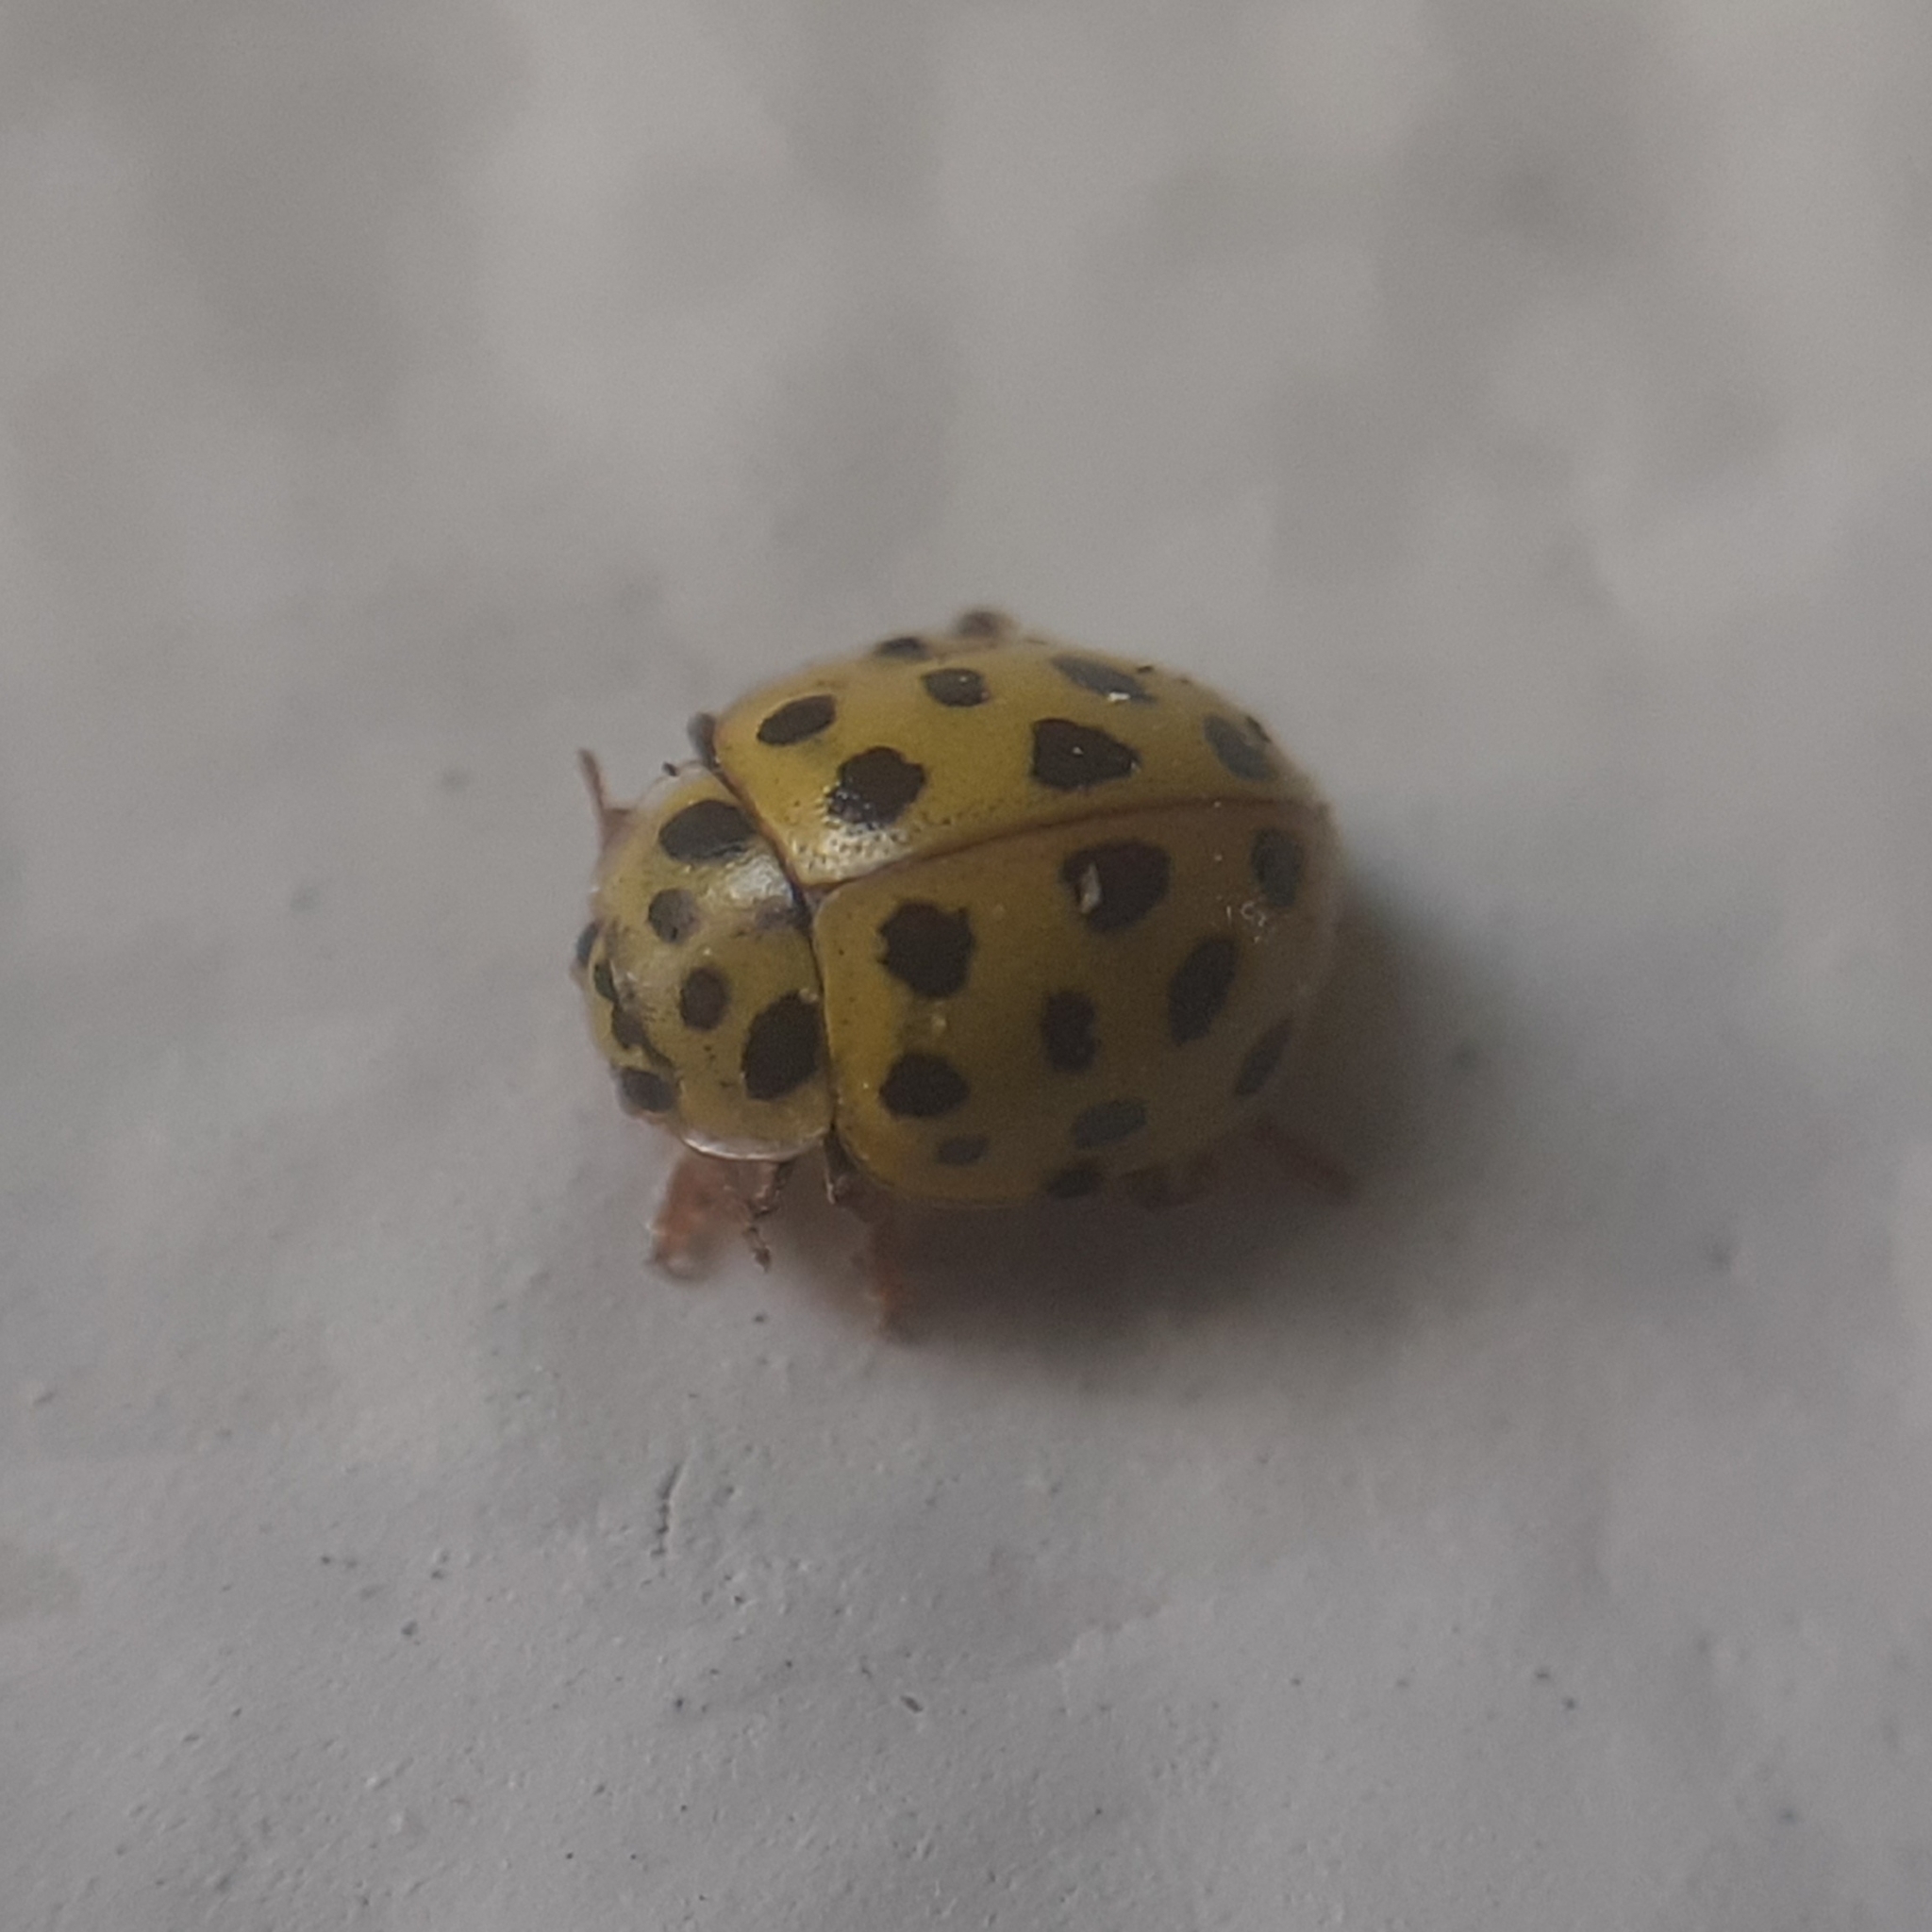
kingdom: Animalia
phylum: Arthropoda
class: Insecta
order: Coleoptera
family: Coccinellidae
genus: Psyllobora
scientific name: Psyllobora vigintiduopunctata
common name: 22-spot ladybird
